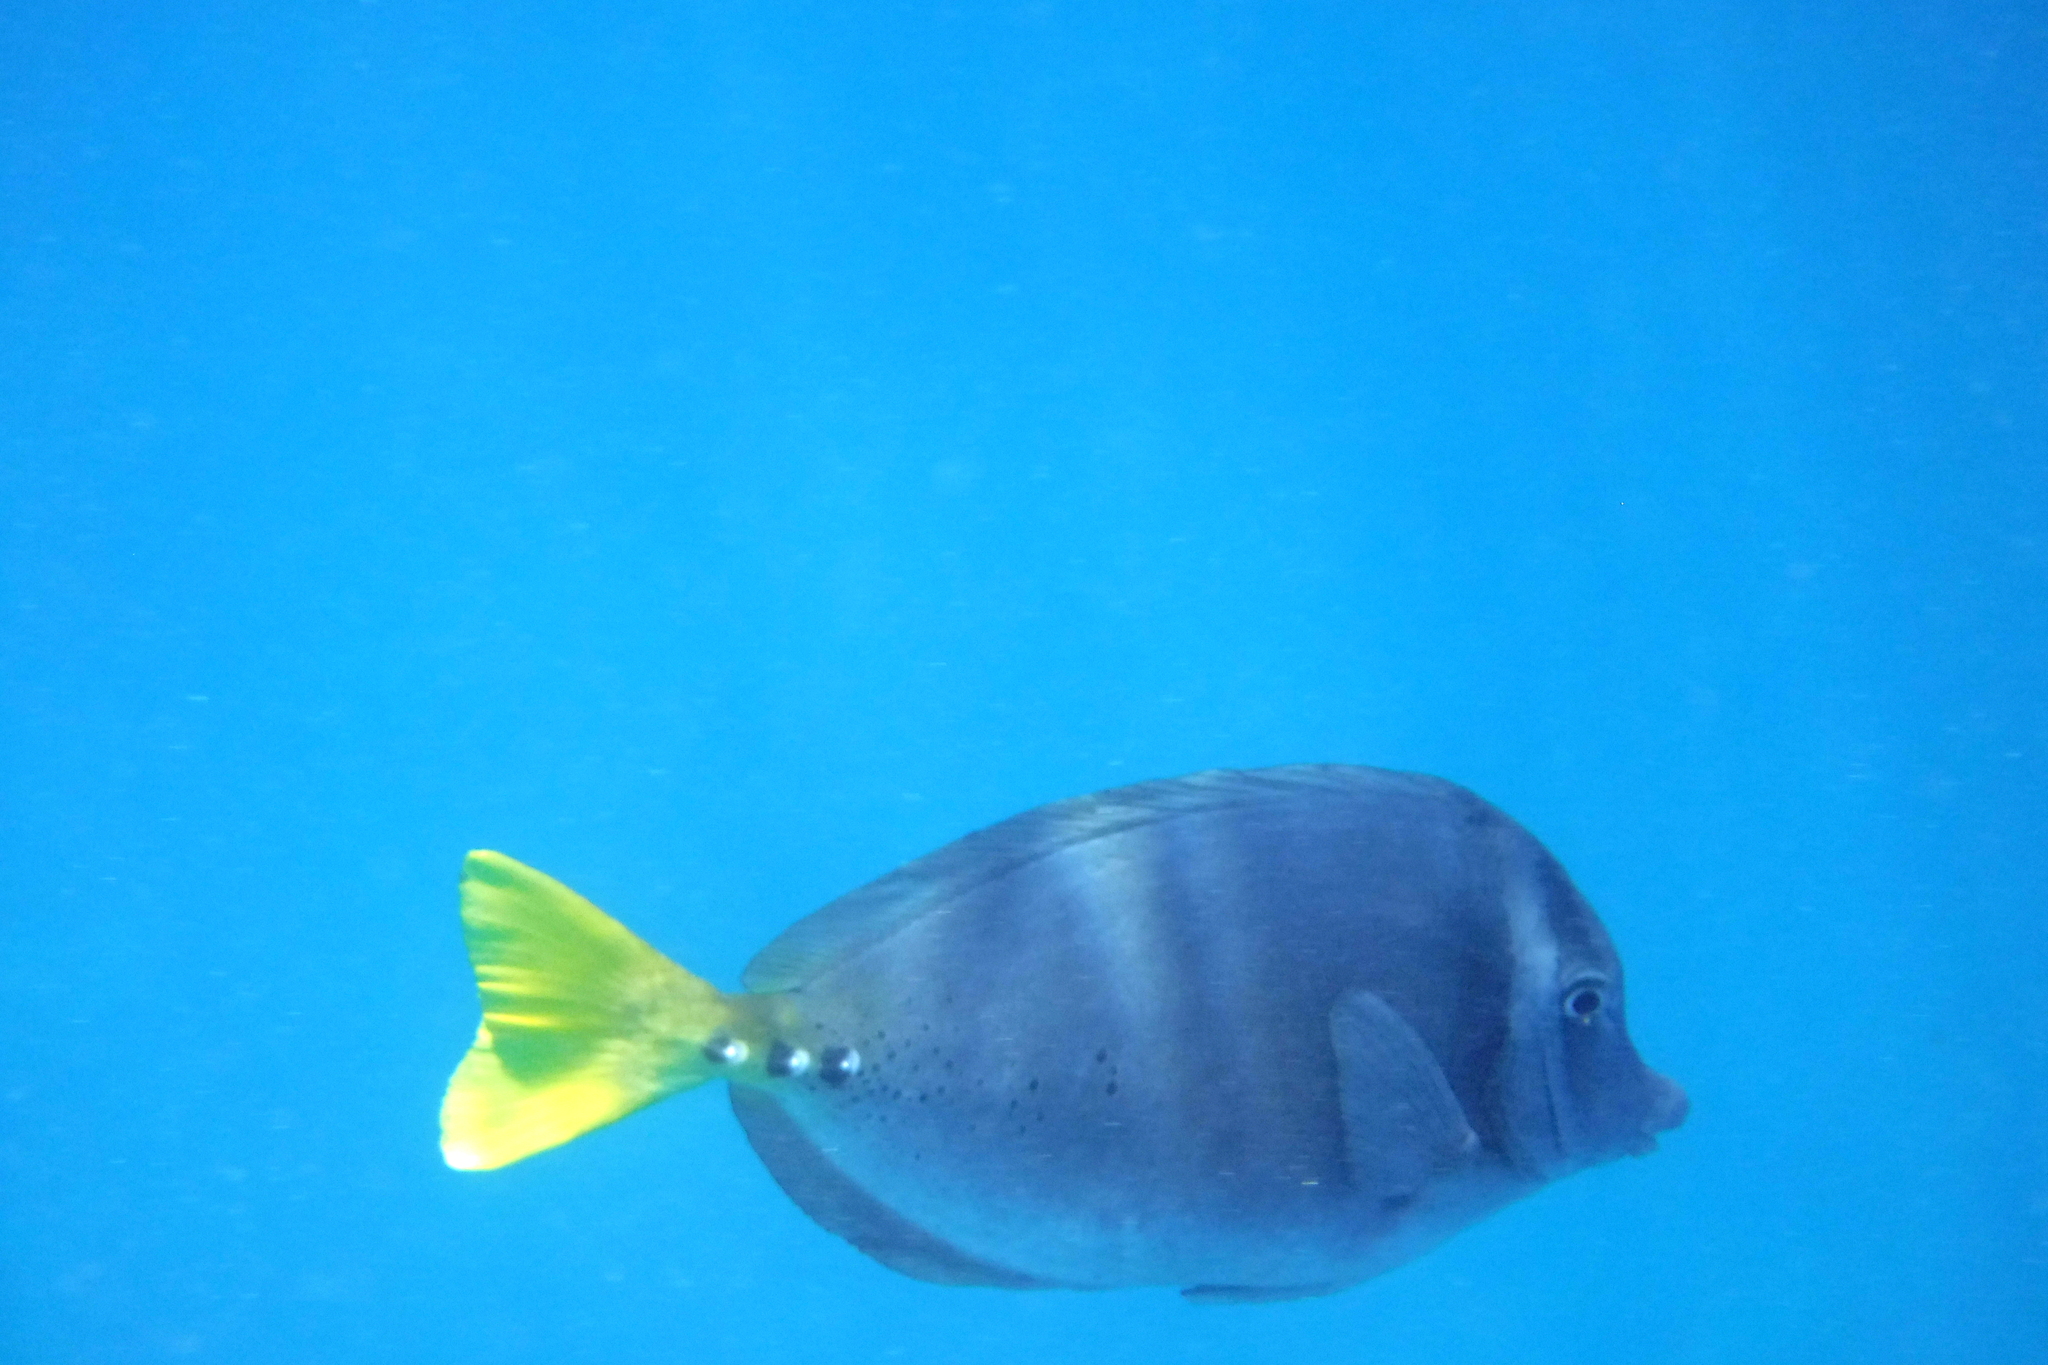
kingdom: Animalia
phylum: Chordata
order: Perciformes
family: Acanthuridae
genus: Prionurus
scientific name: Prionurus laticlavius
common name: Razor surgeonfish
